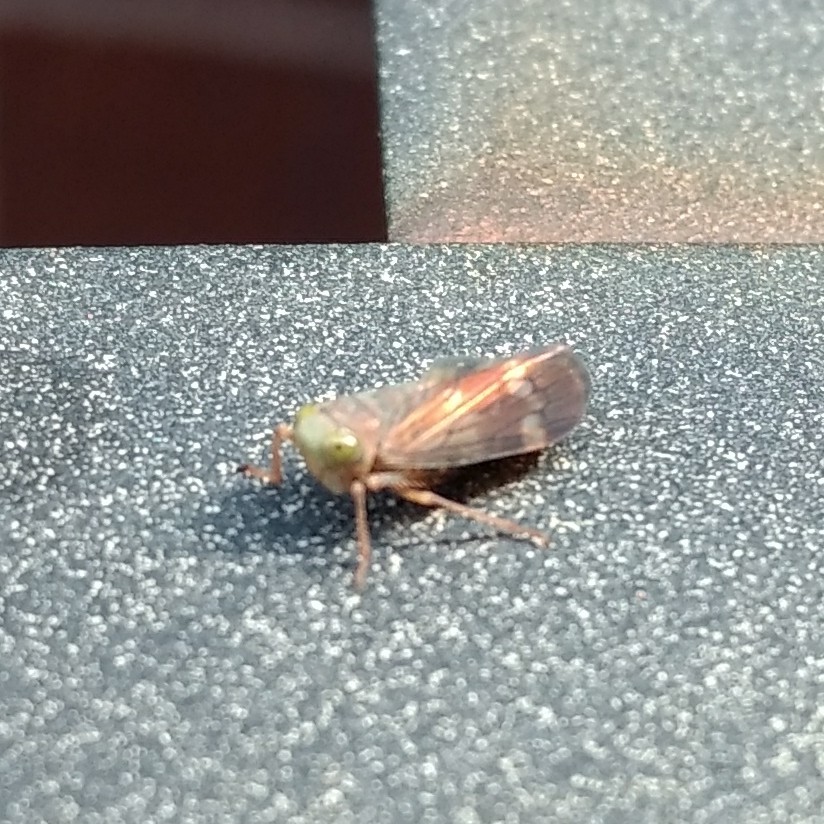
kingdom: Animalia
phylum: Arthropoda
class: Insecta
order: Hemiptera
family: Cicadellidae
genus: Jikradia
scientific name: Jikradia olitoria
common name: Coppery leafhopper
